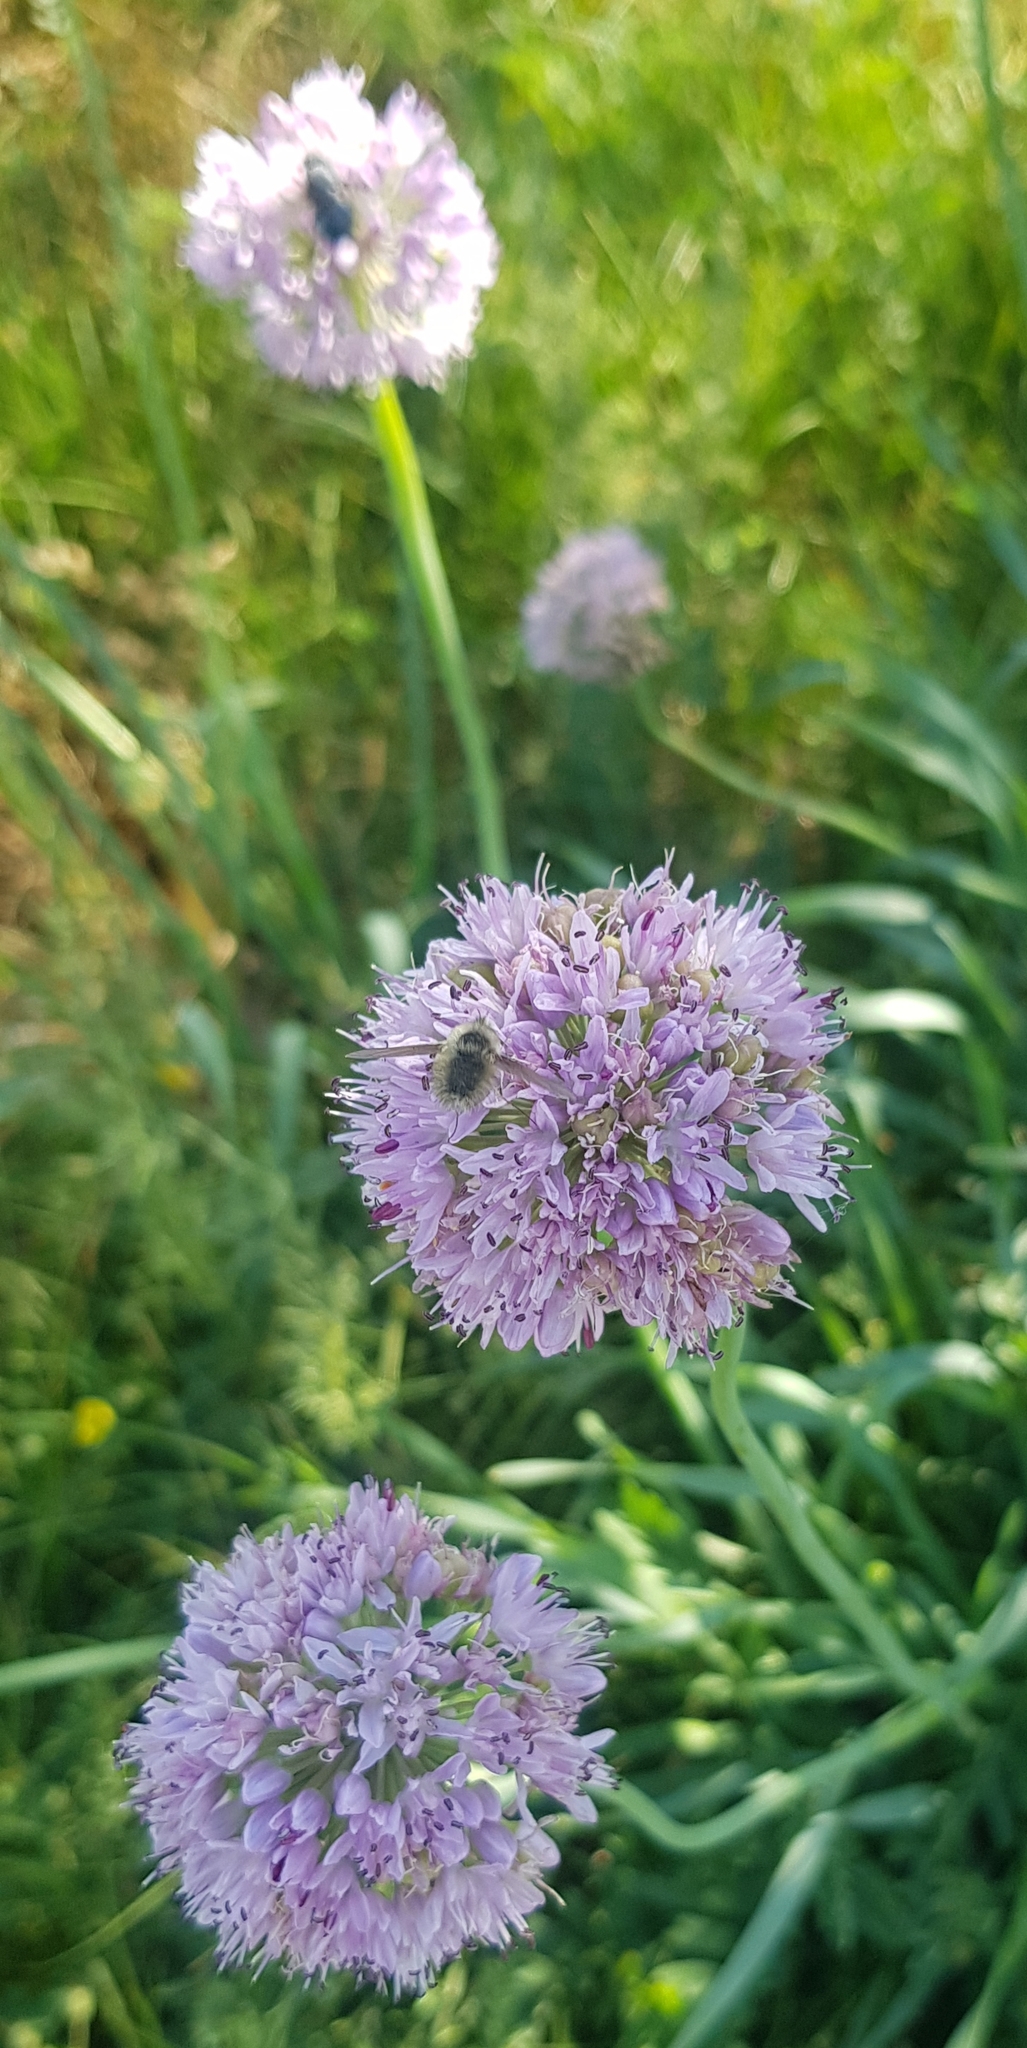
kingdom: Plantae
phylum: Tracheophyta
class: Liliopsida
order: Asparagales
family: Amaryllidaceae
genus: Allium
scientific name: Allium senescens
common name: German garlic
